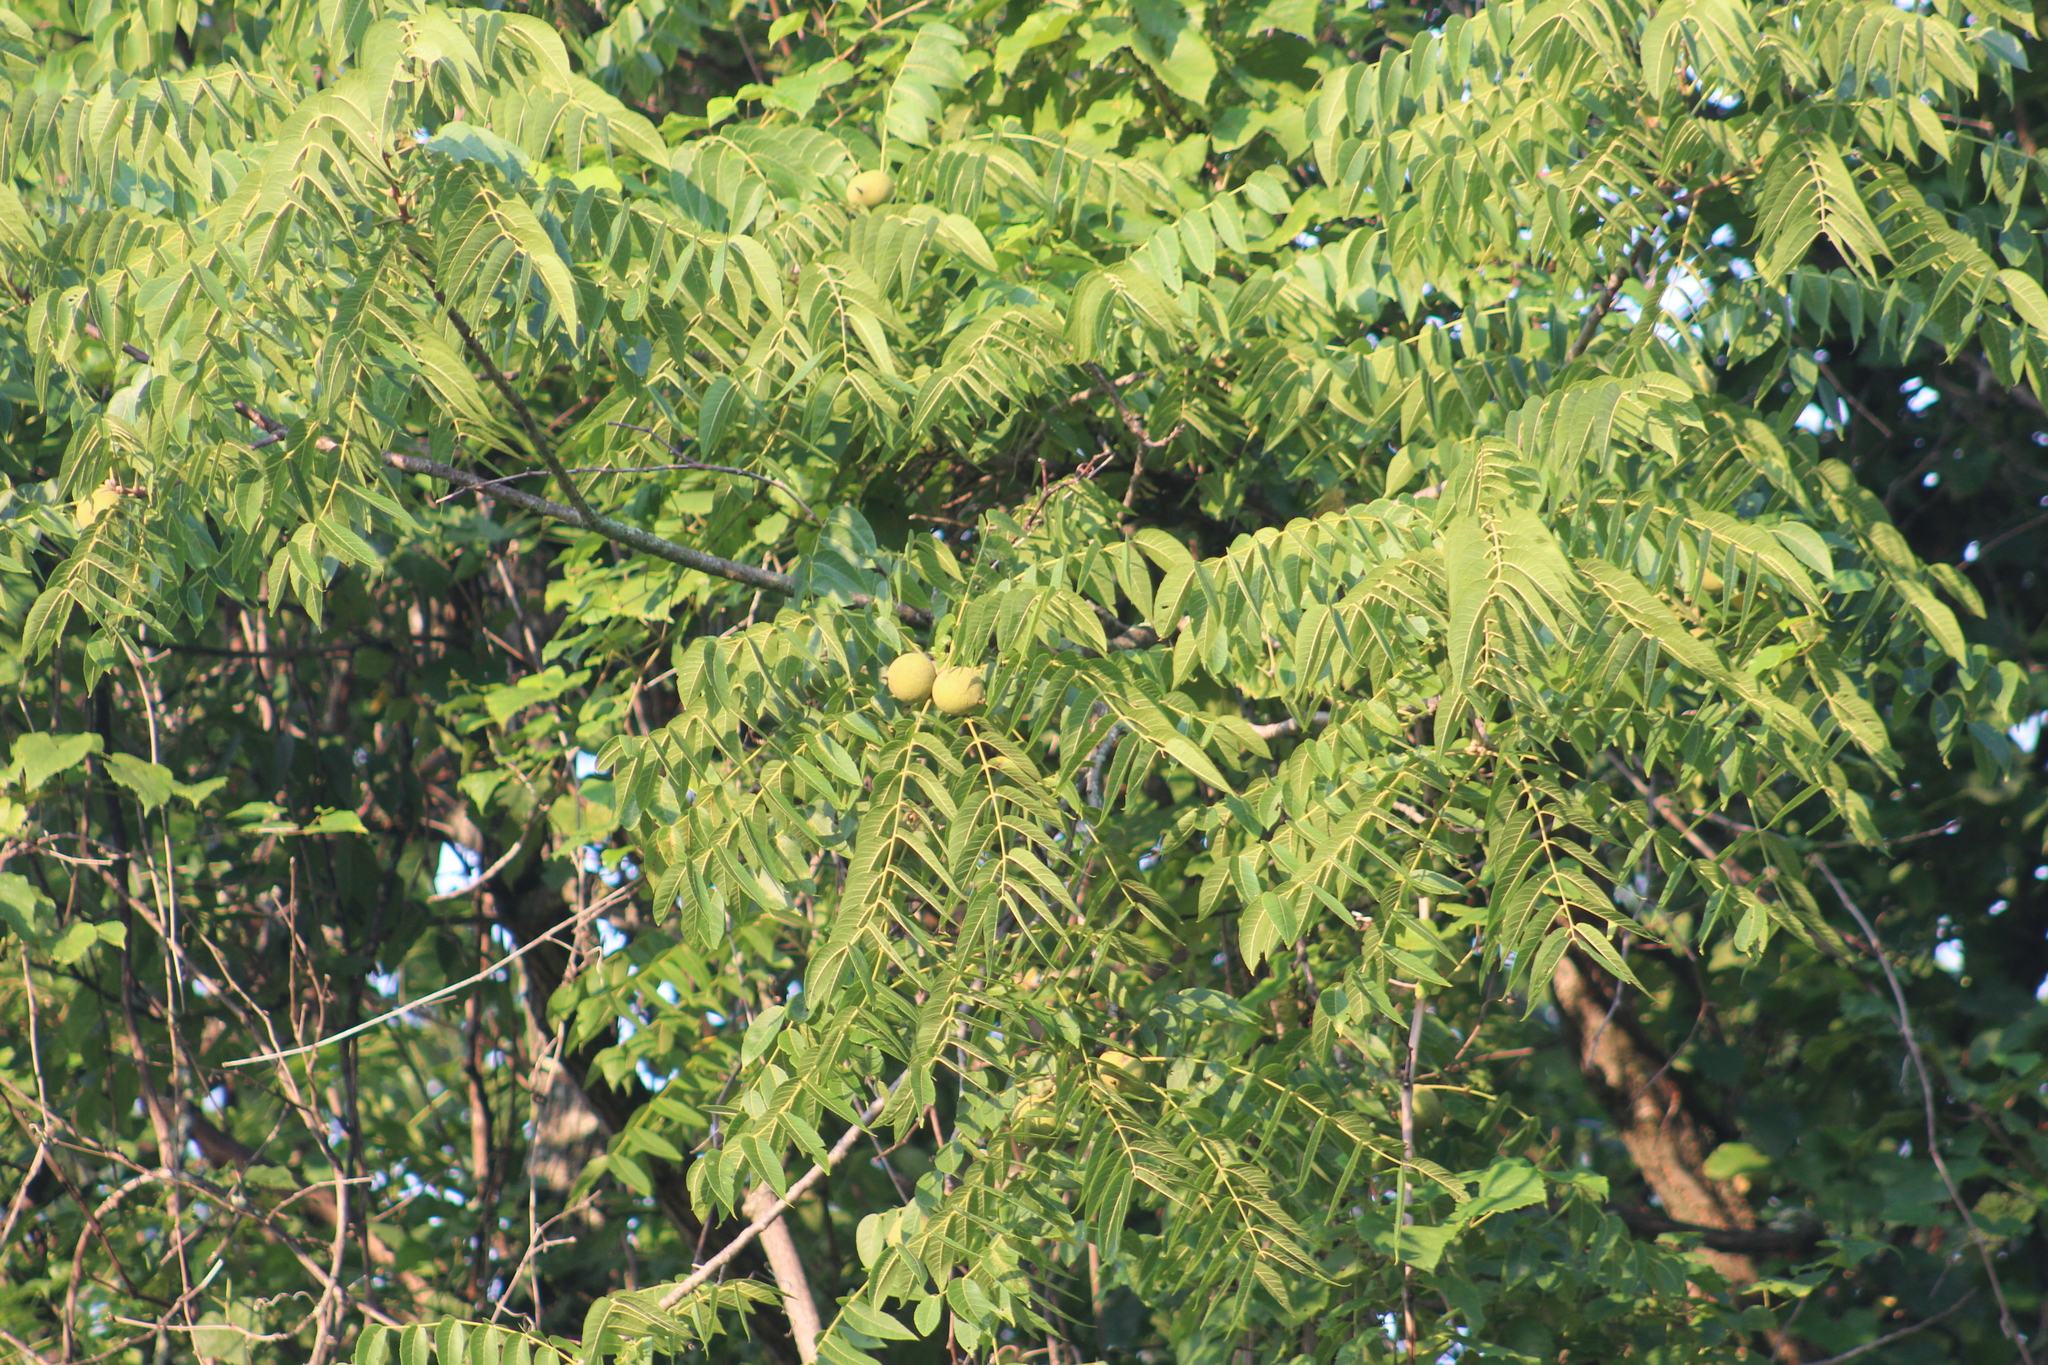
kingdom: Plantae
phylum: Tracheophyta
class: Magnoliopsida
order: Fagales
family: Juglandaceae
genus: Juglans
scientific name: Juglans nigra
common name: Black walnut
